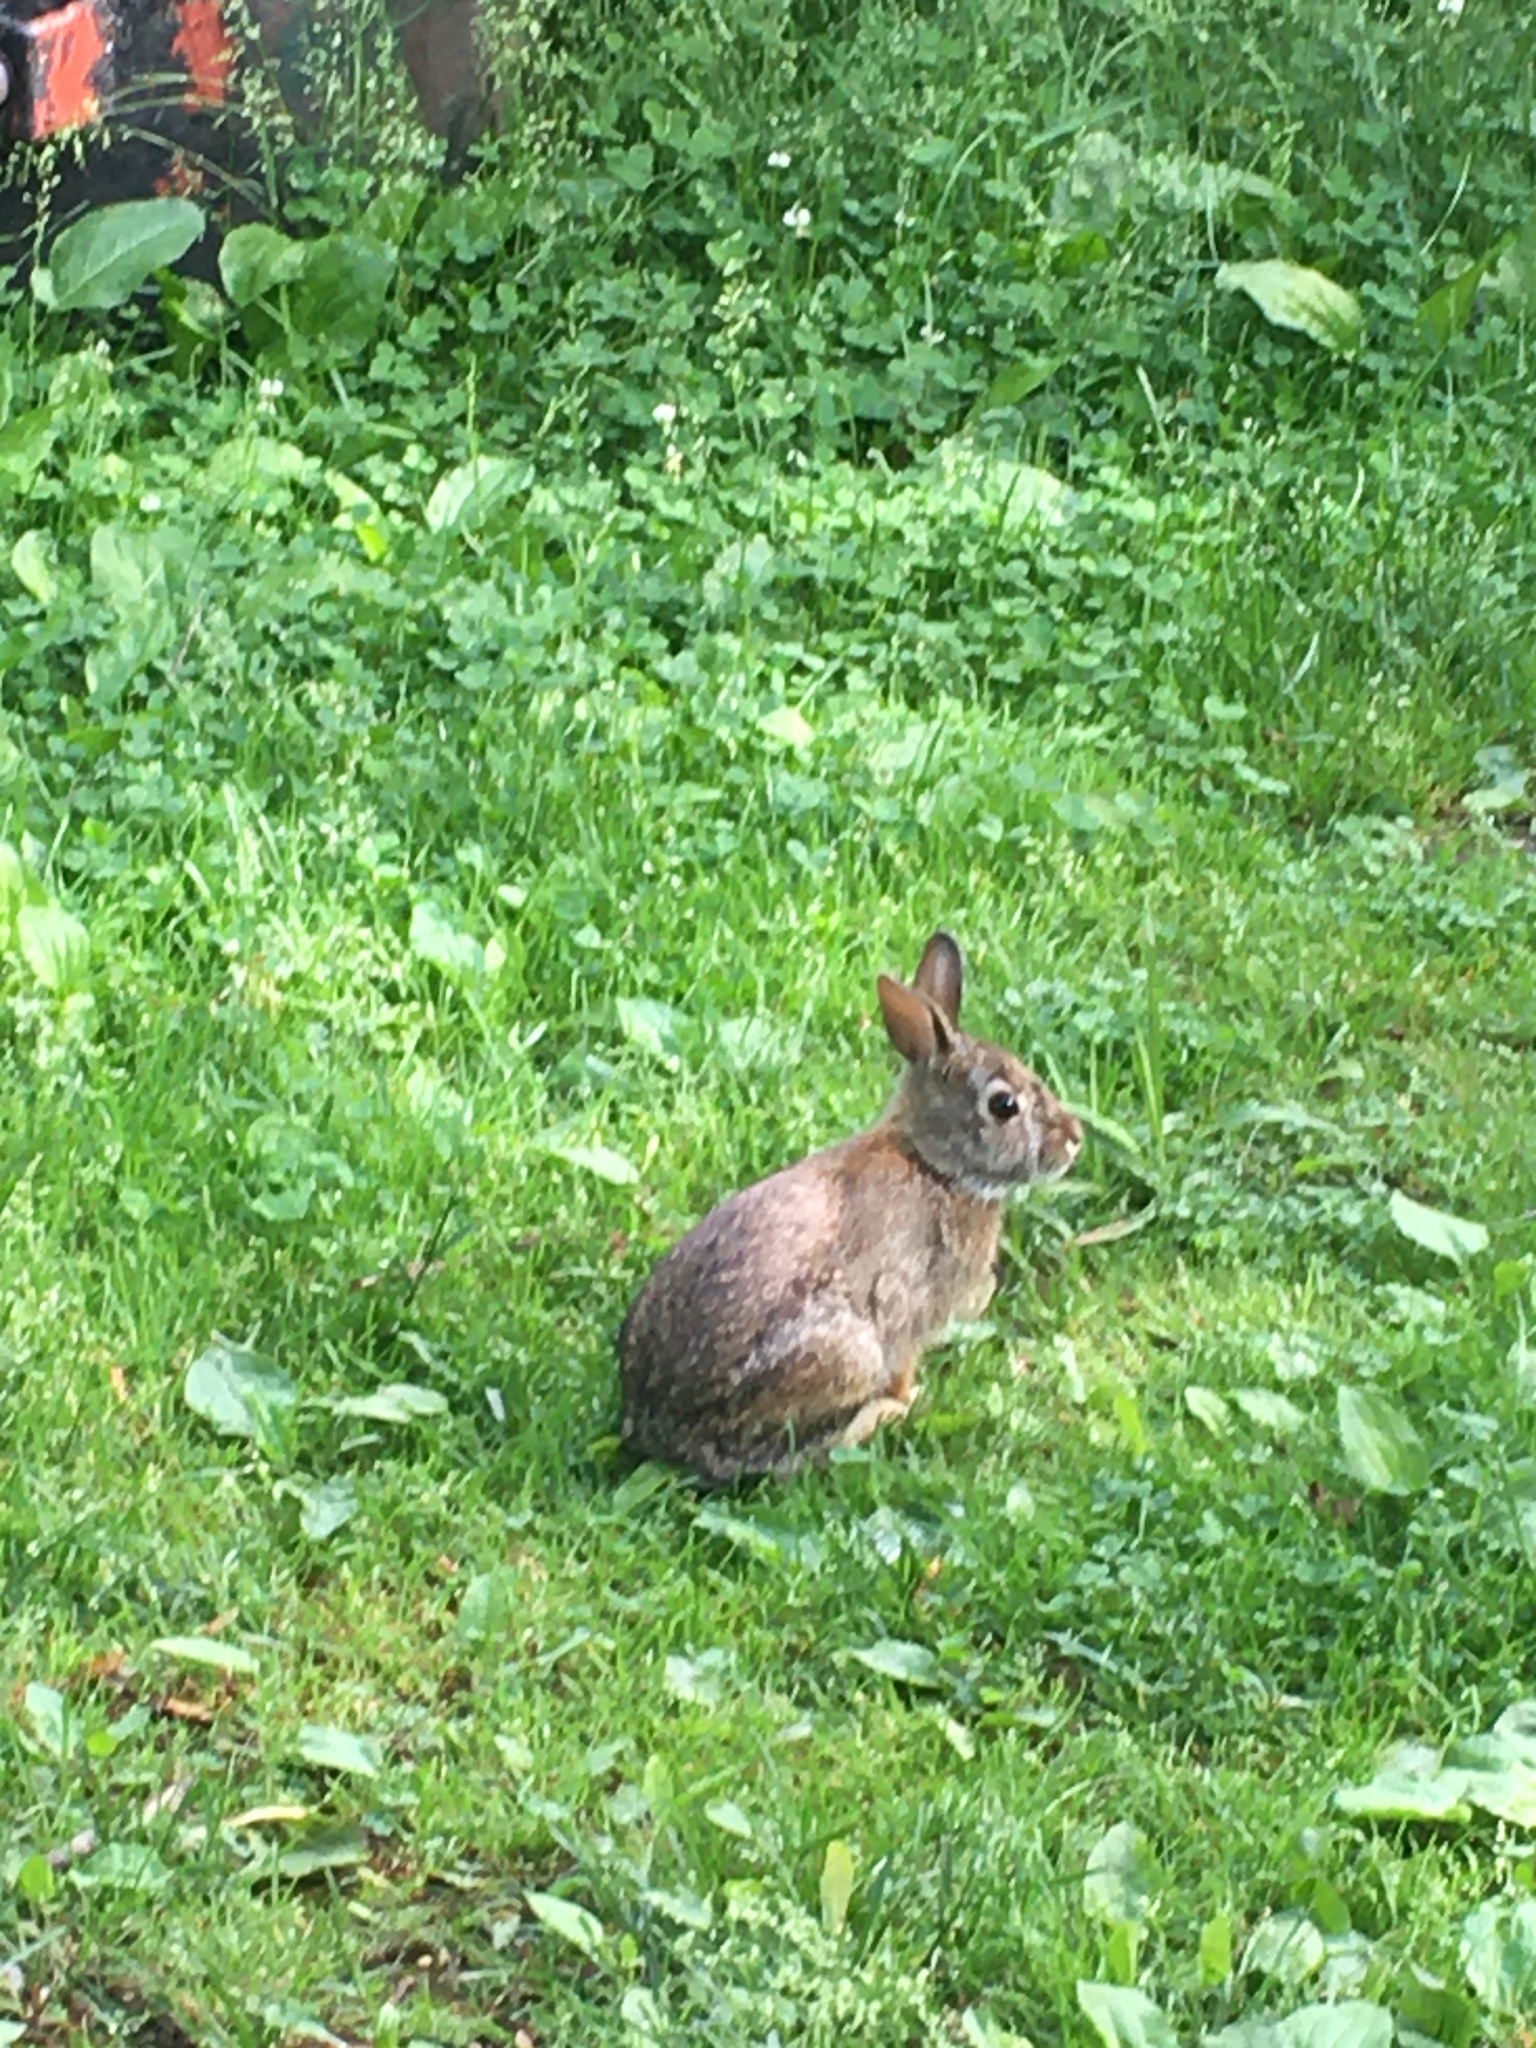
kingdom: Animalia
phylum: Chordata
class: Mammalia
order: Lagomorpha
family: Leporidae
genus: Sylvilagus
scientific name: Sylvilagus floridanus
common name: Eastern cottontail
